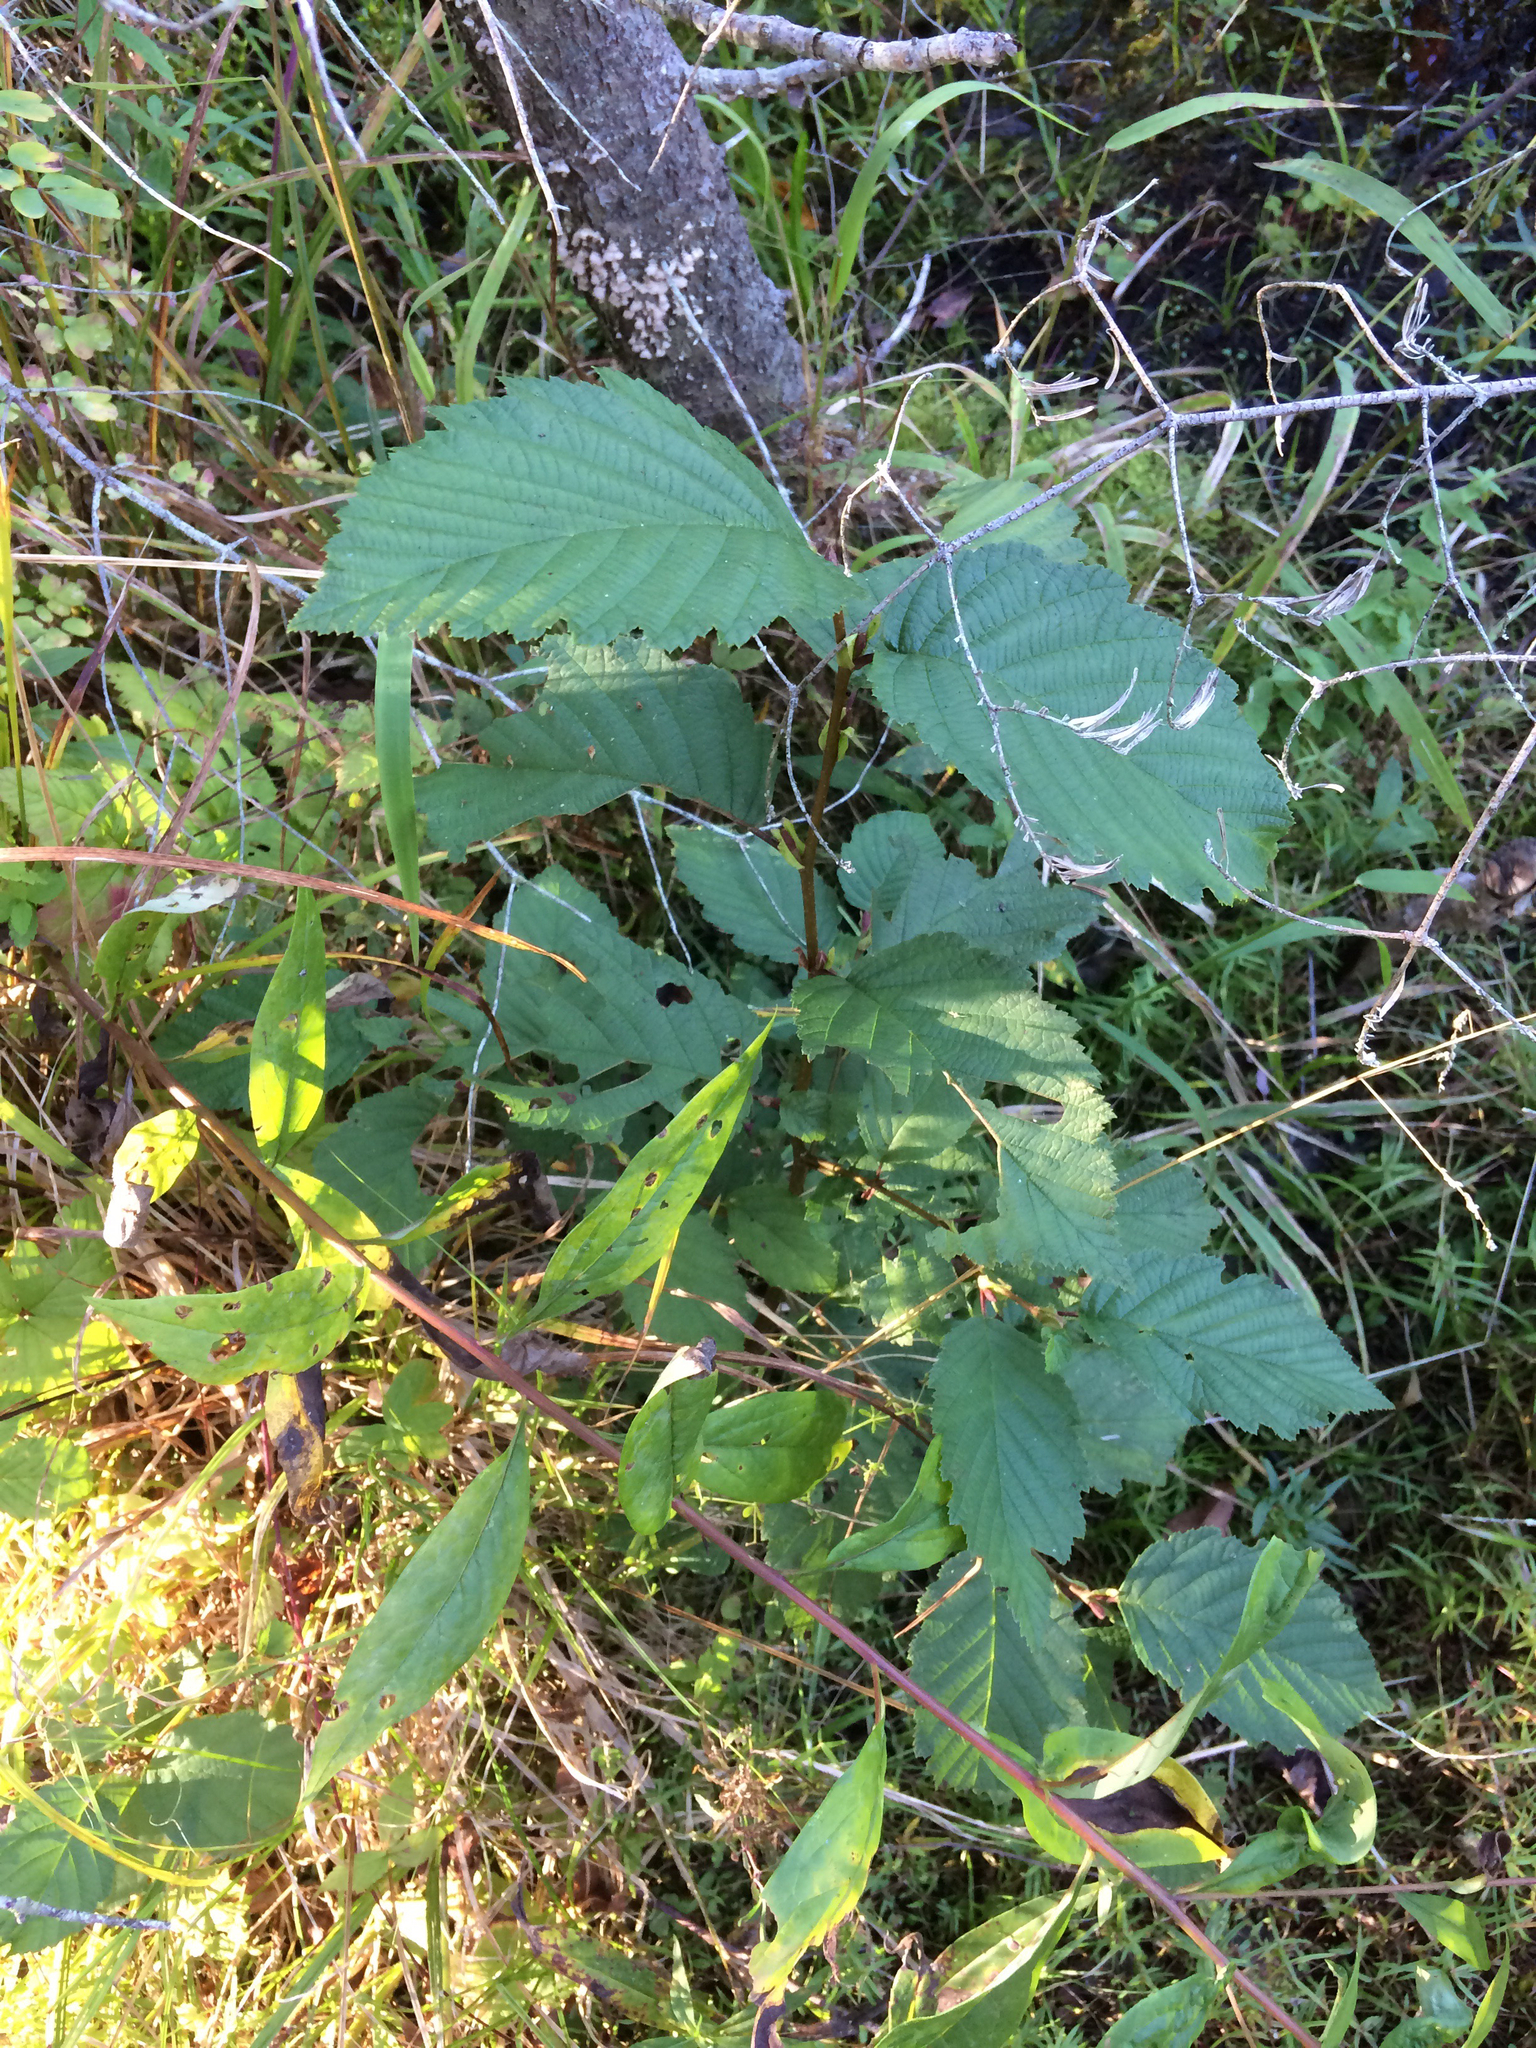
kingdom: Plantae
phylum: Tracheophyta
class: Magnoliopsida
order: Fagales
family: Betulaceae
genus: Alnus
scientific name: Alnus incana
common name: Grey alder
